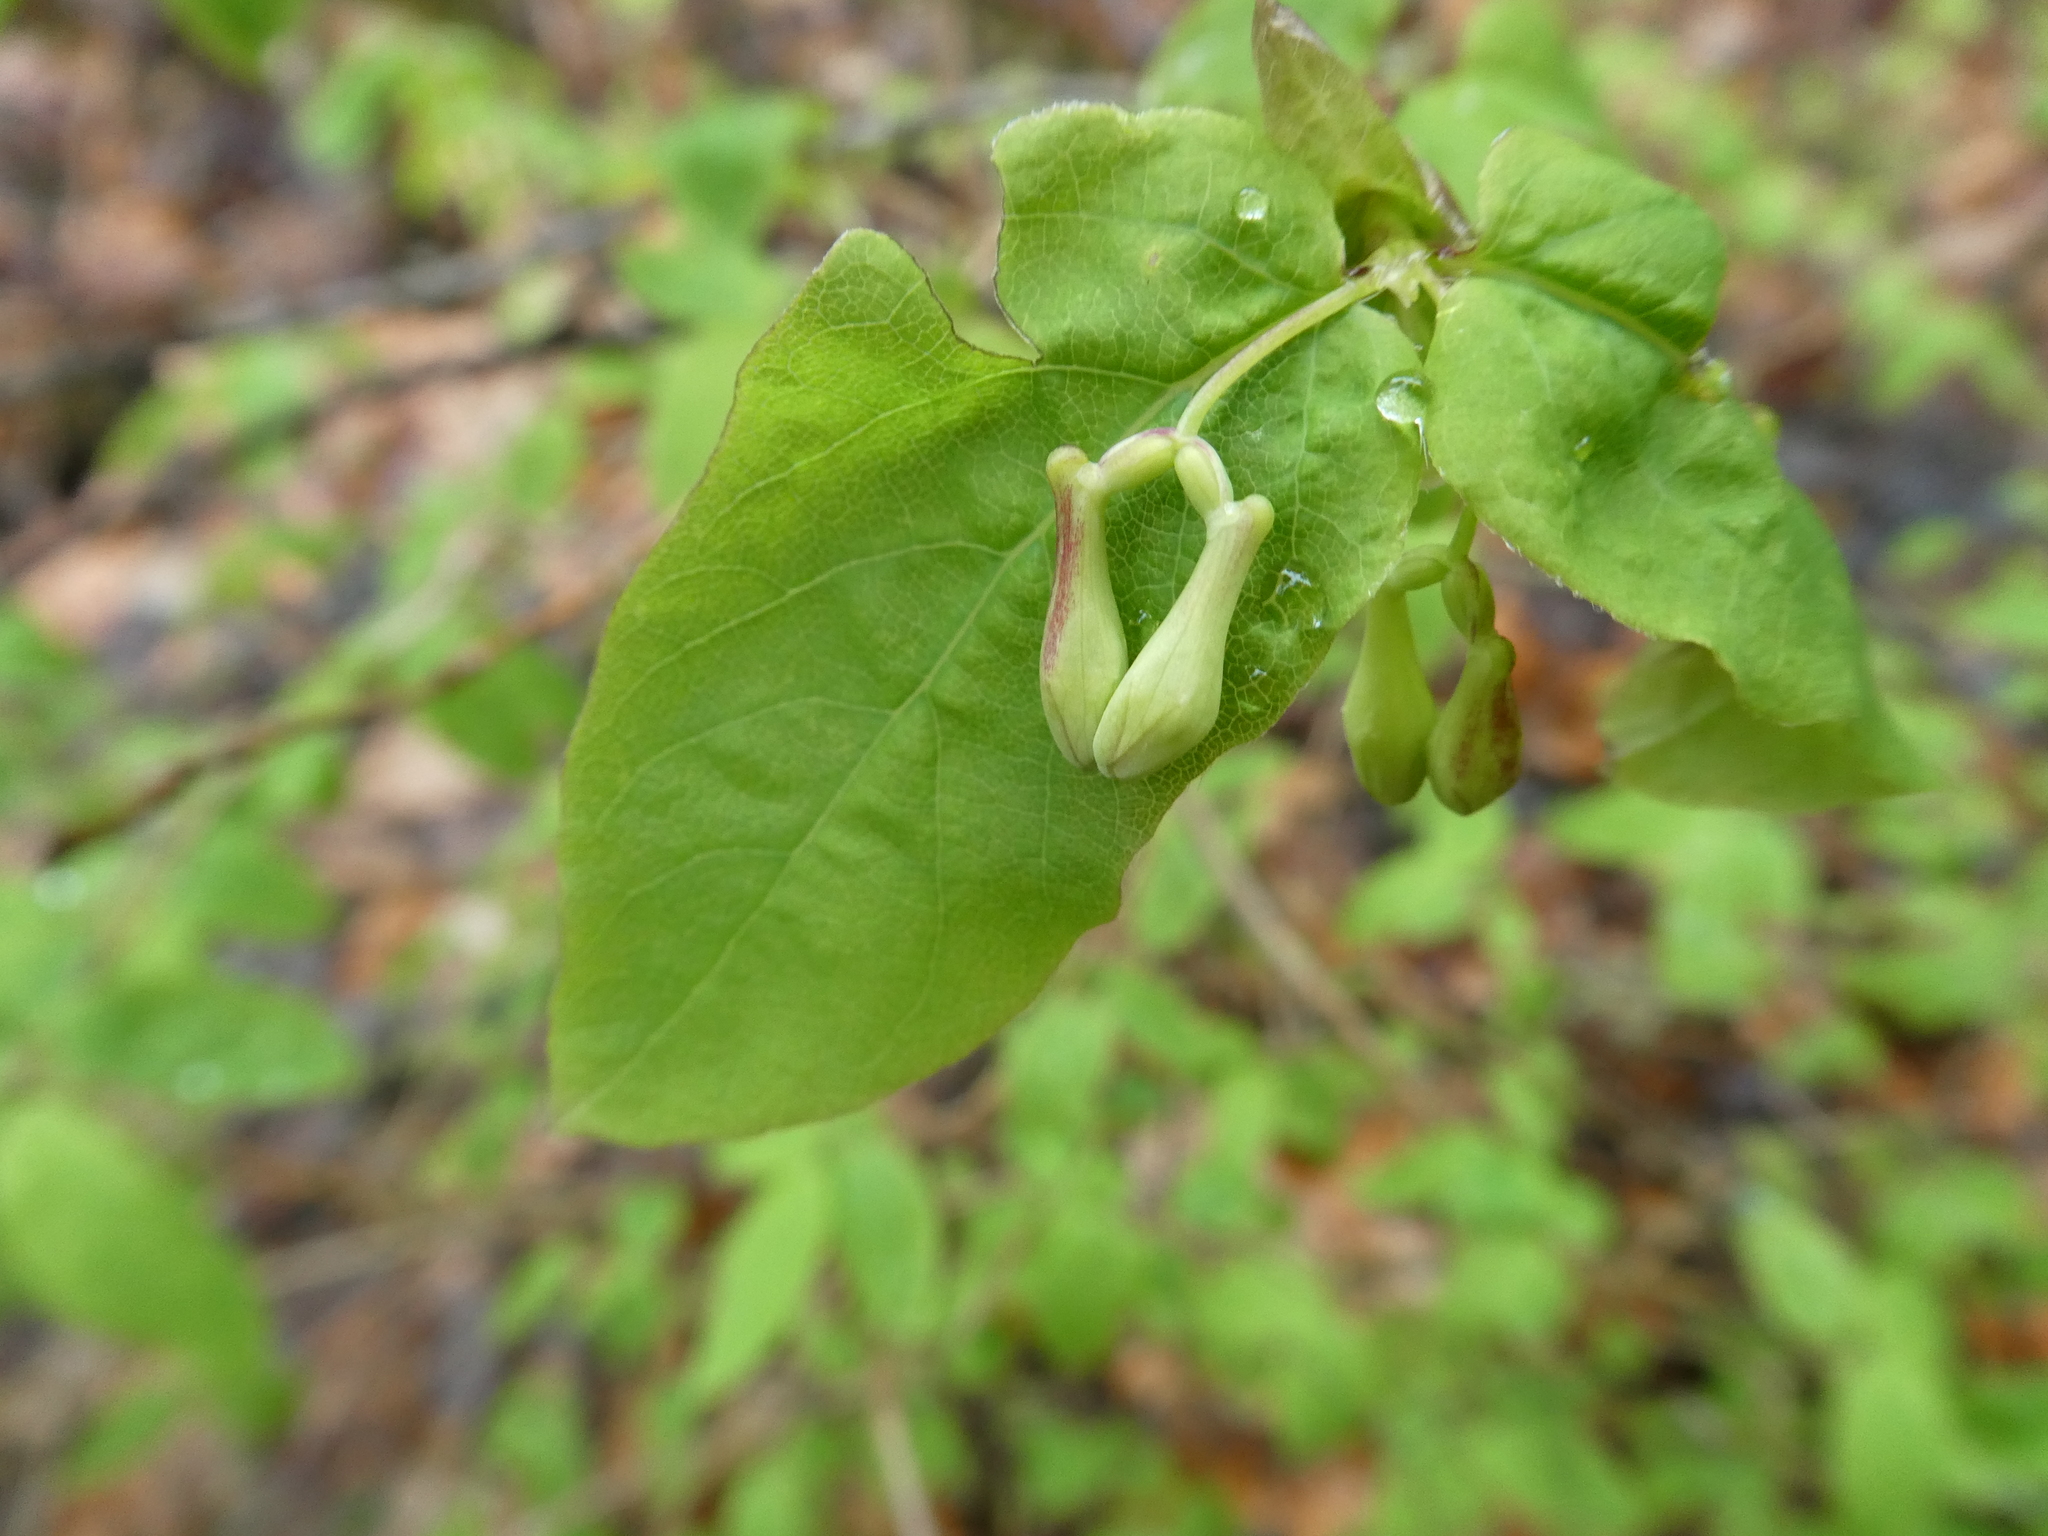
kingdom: Plantae
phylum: Tracheophyta
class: Magnoliopsida
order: Dipsacales
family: Caprifoliaceae
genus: Lonicera
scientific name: Lonicera canadensis
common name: American fly-honeysuckle
